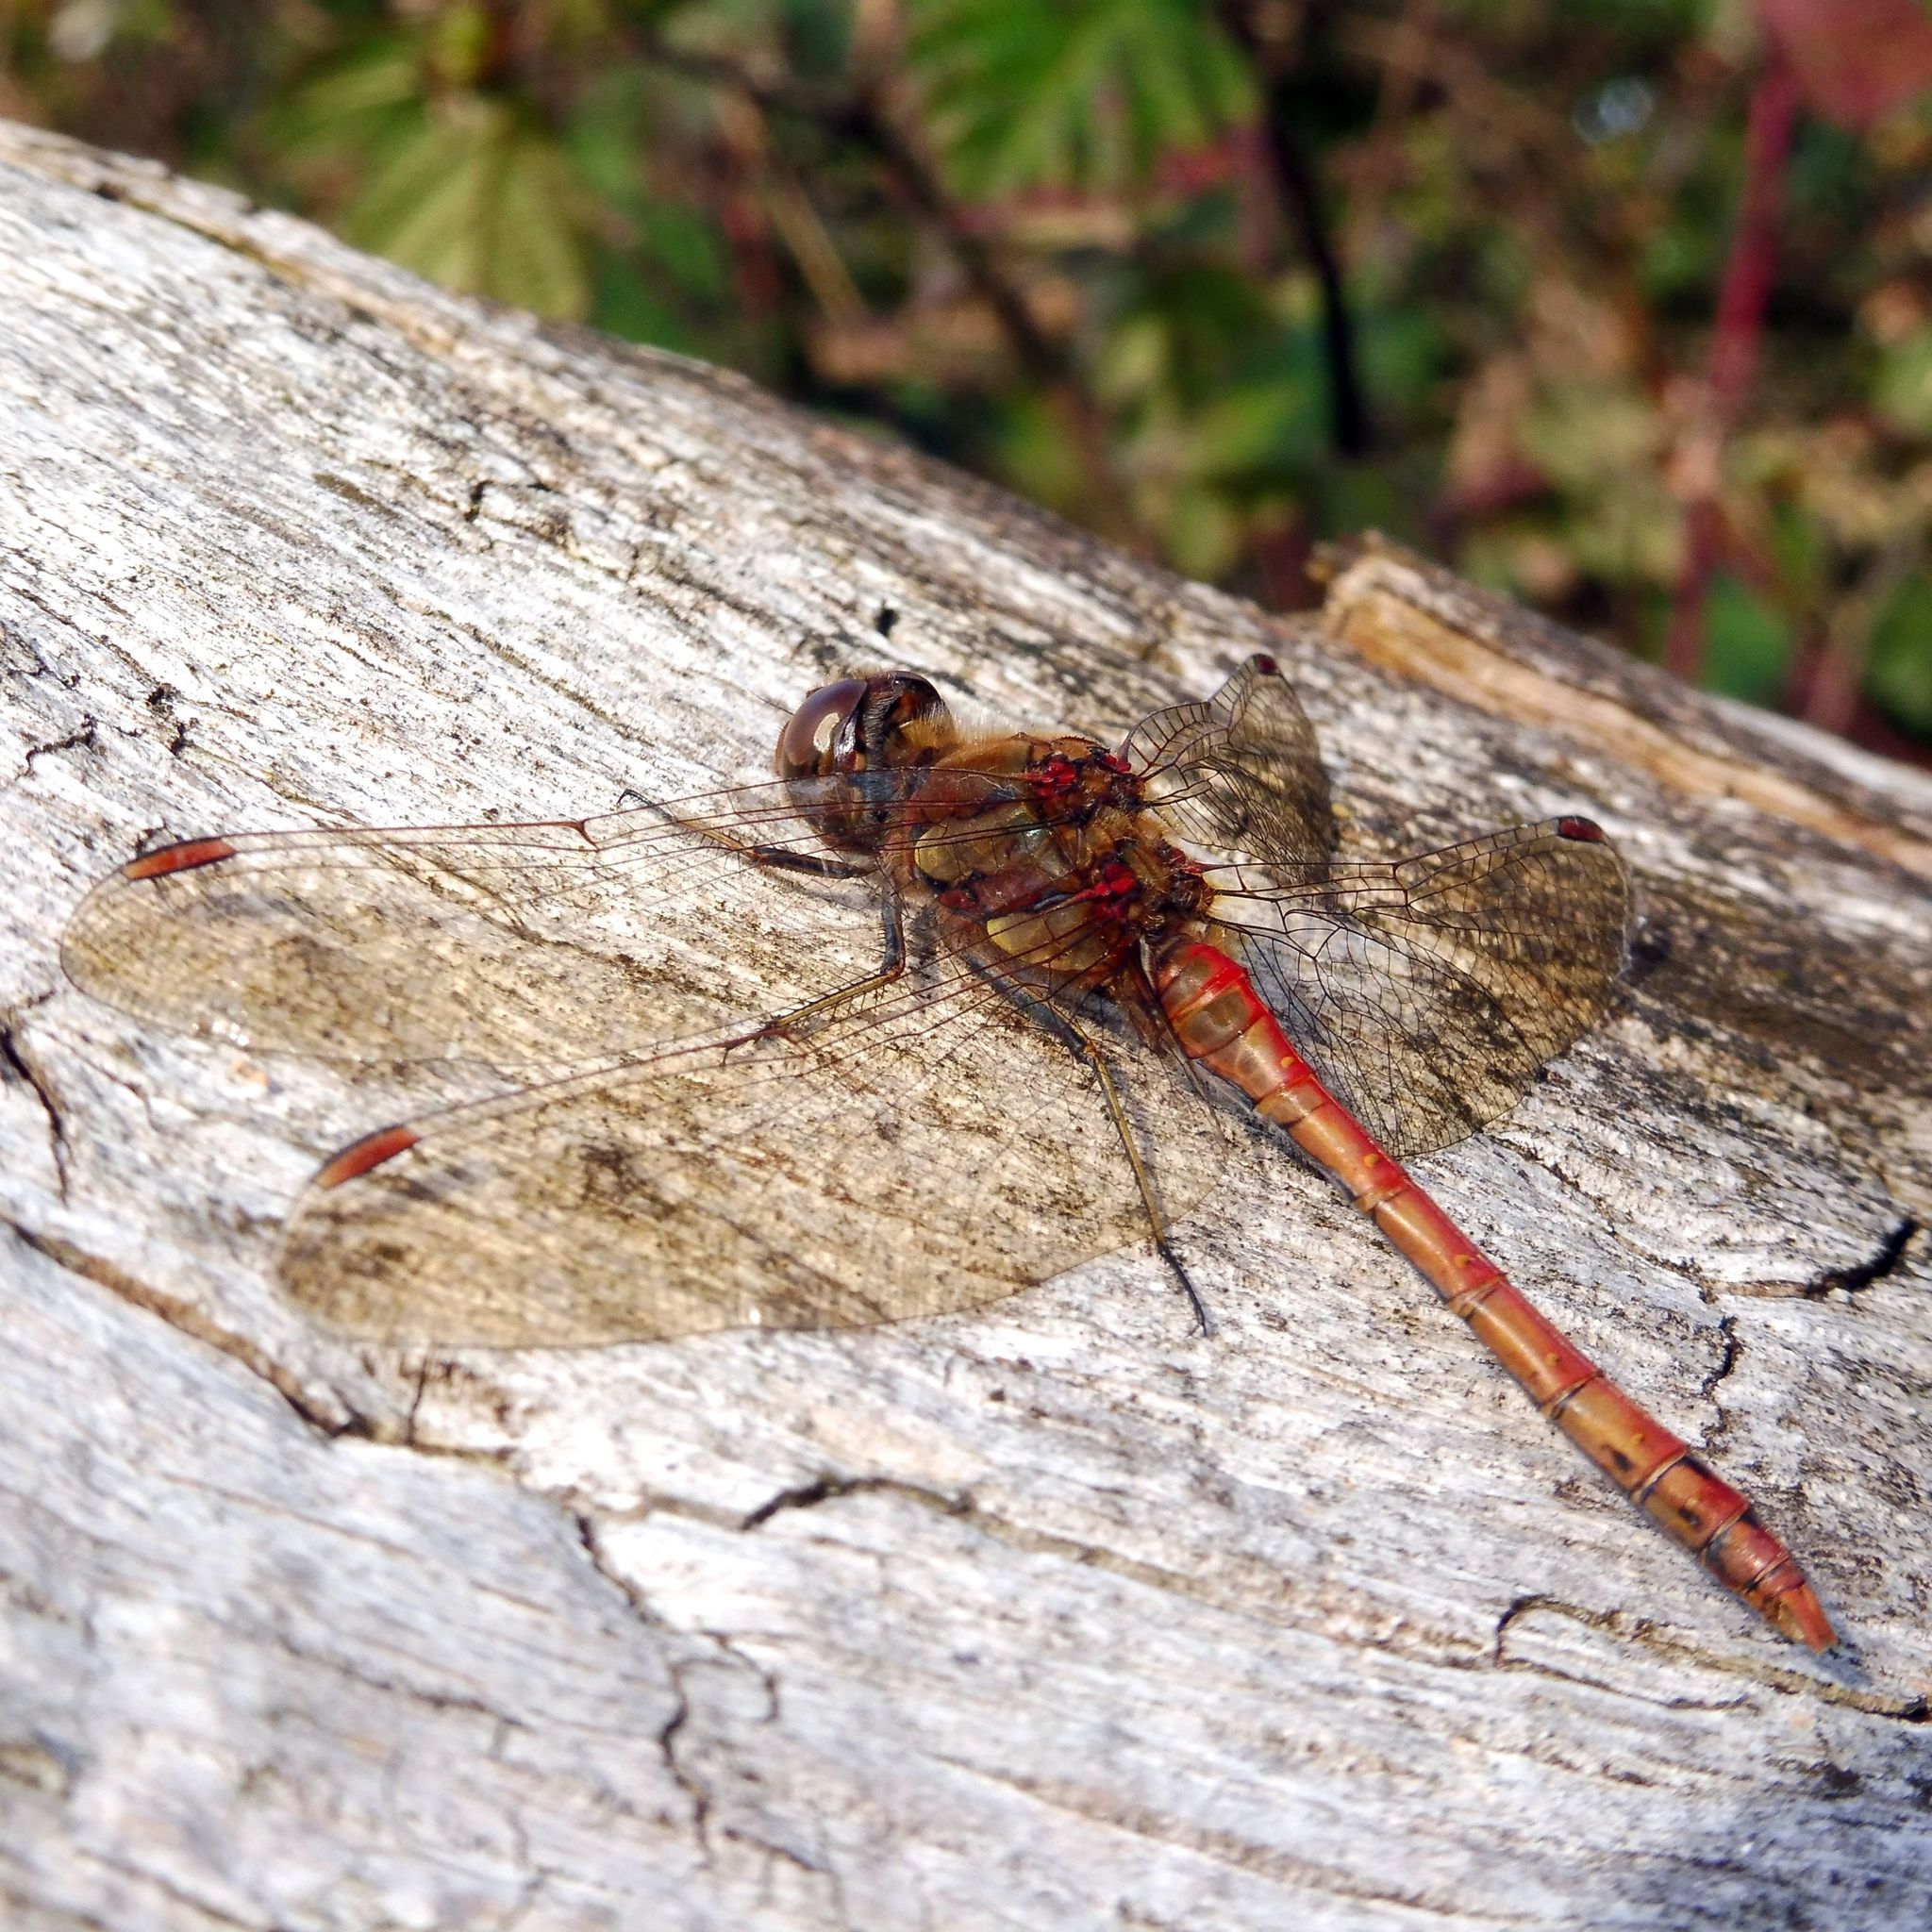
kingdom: Animalia
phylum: Arthropoda
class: Insecta
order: Odonata
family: Libellulidae
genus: Sympetrum
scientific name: Sympetrum striolatum
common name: Common darter
